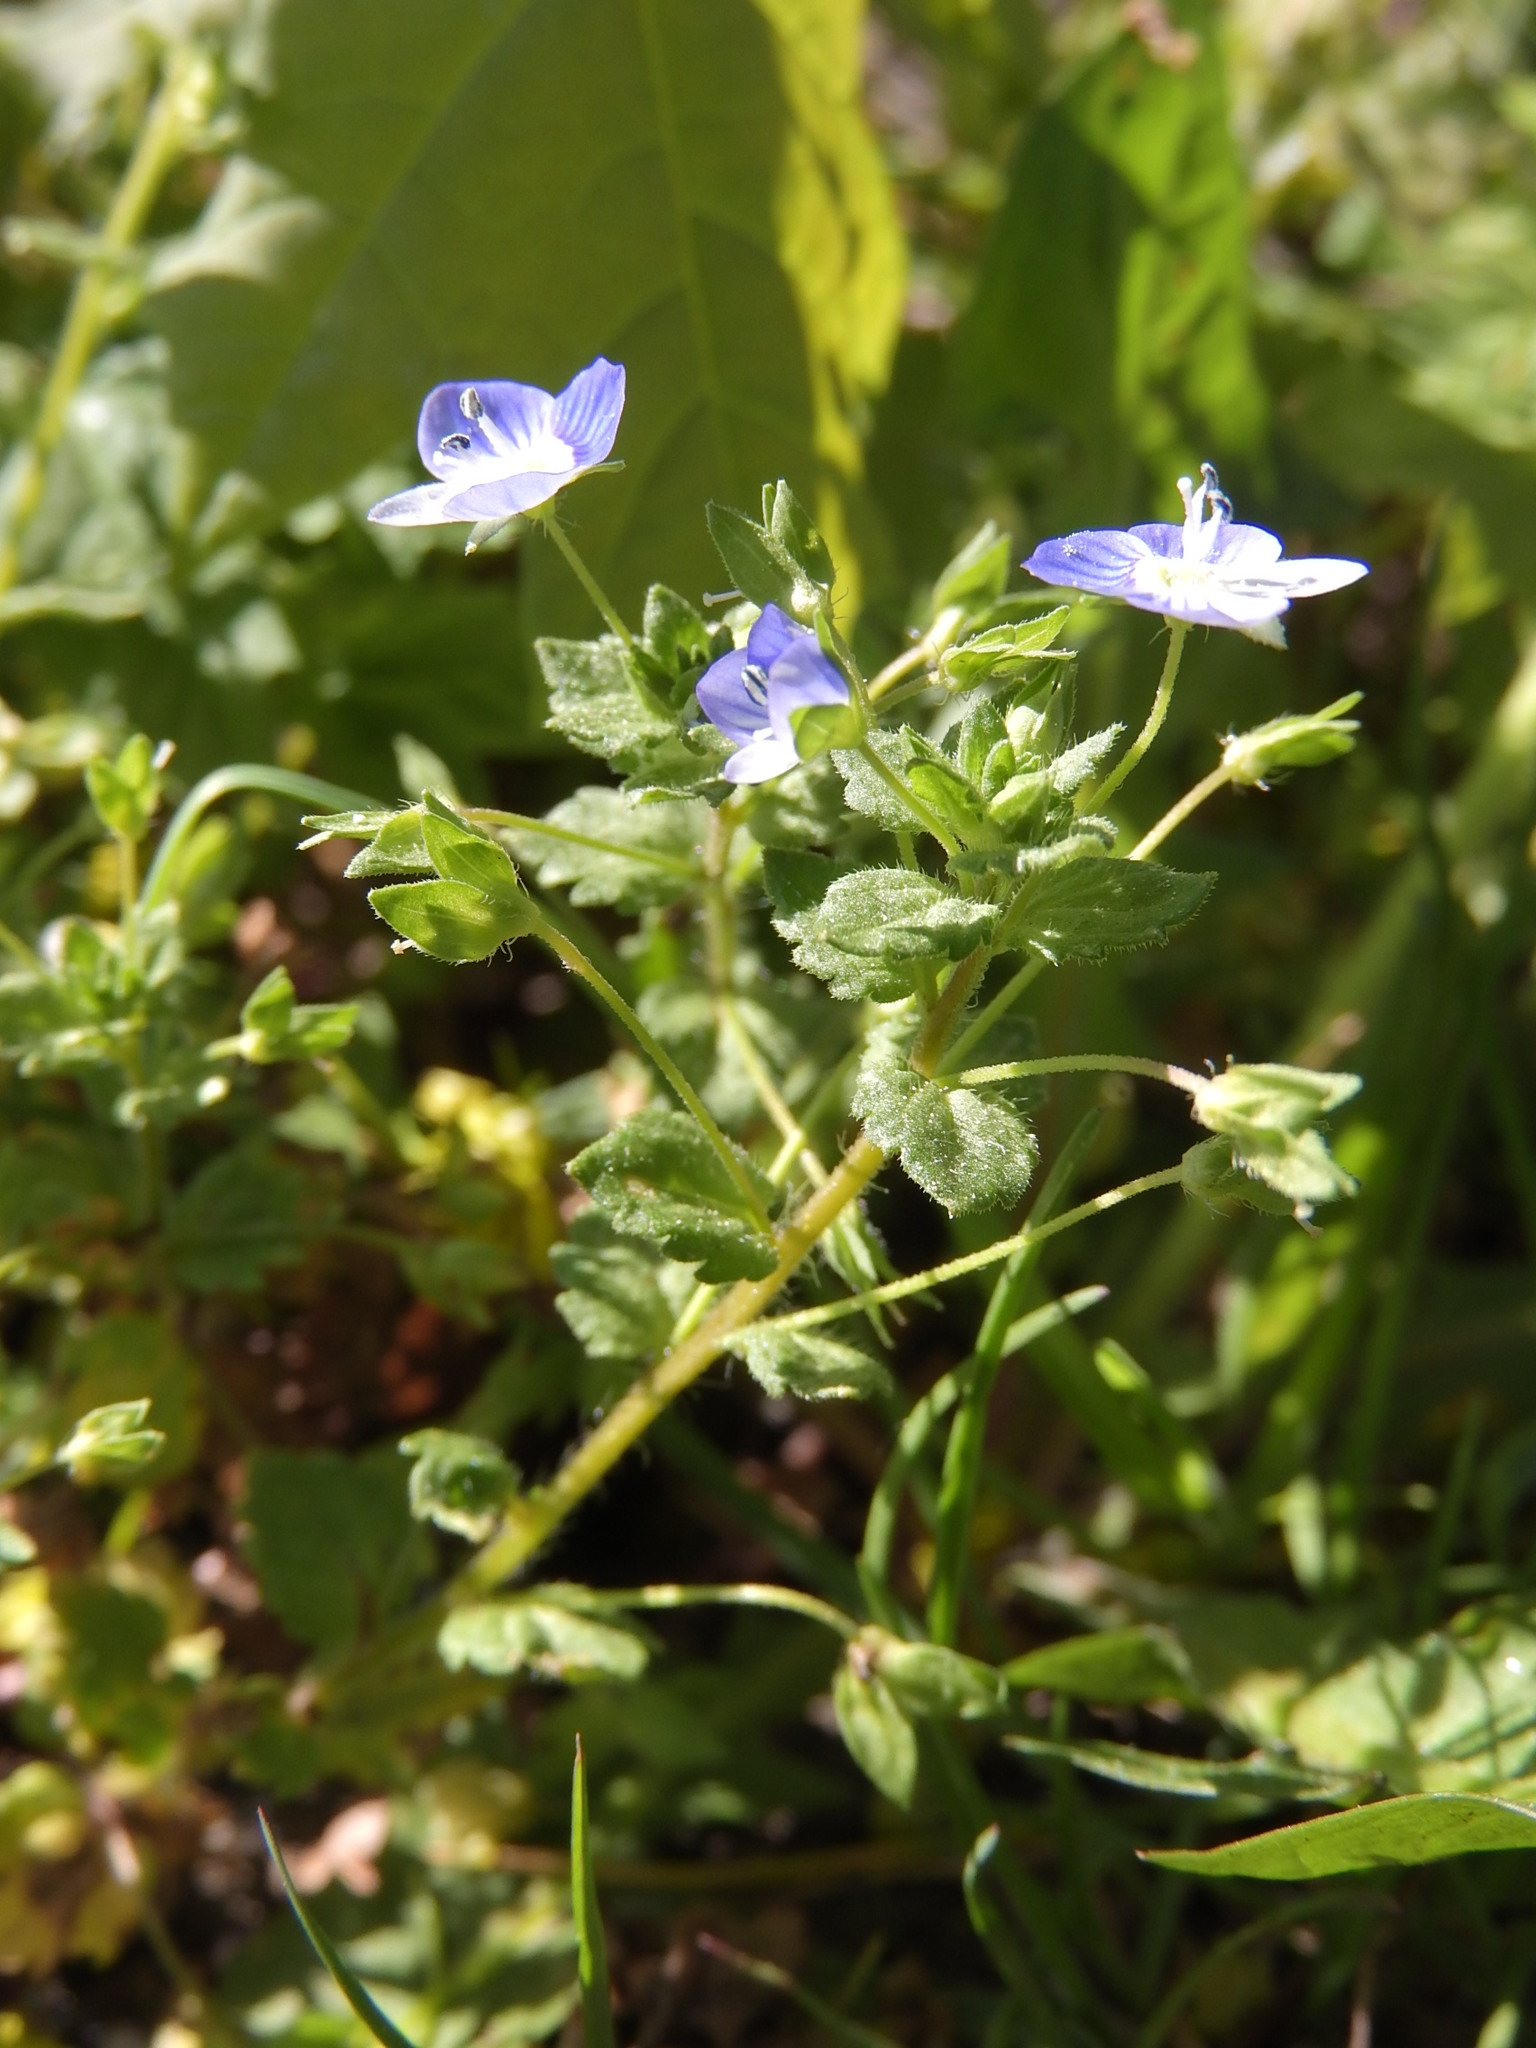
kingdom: Plantae
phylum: Tracheophyta
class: Magnoliopsida
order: Lamiales
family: Plantaginaceae
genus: Veronica
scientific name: Veronica persica
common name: Common field-speedwell
